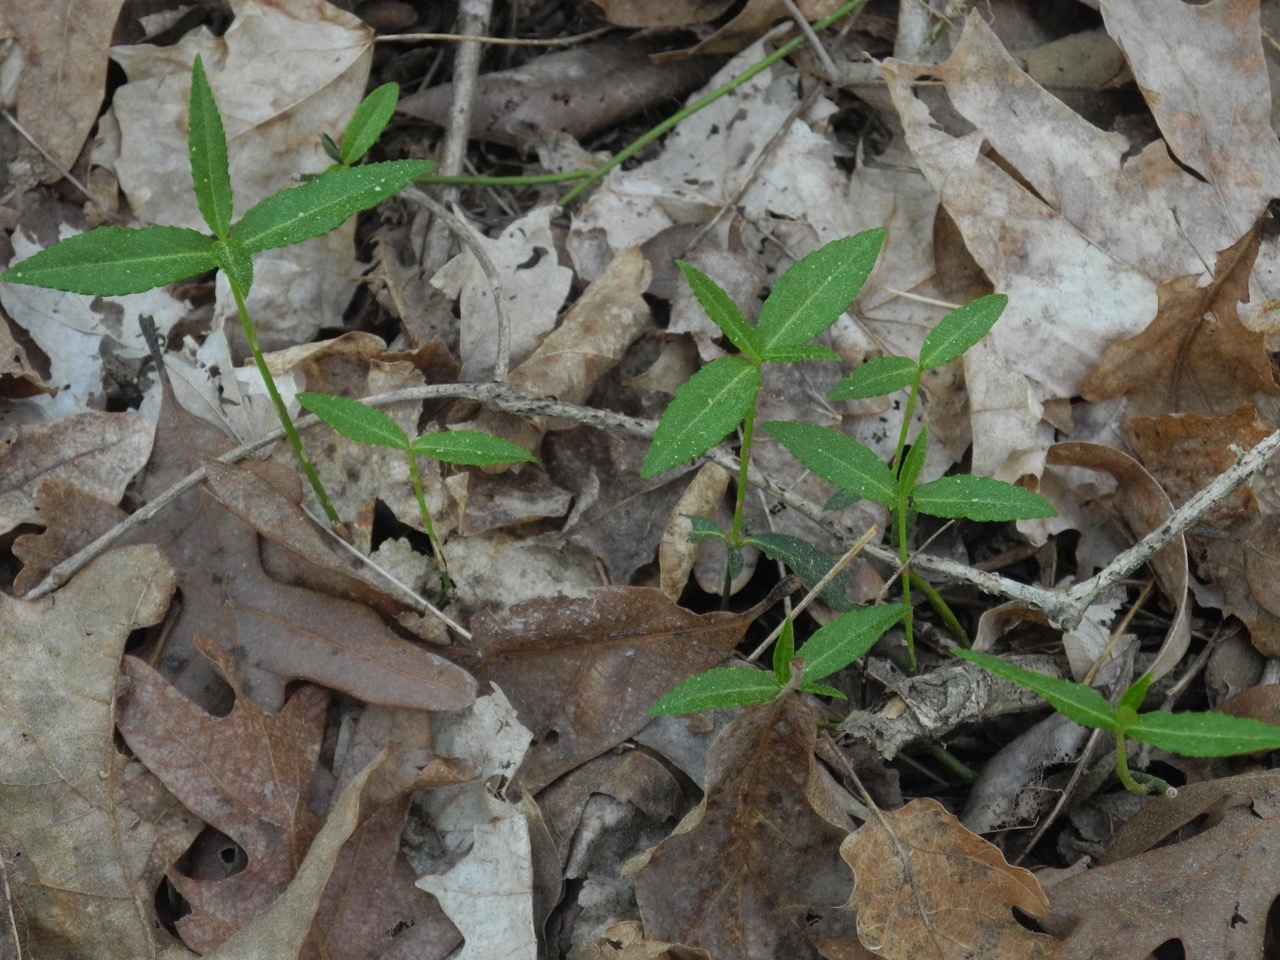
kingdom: Plantae
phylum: Tracheophyta
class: Magnoliopsida
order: Celastrales
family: Celastraceae
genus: Euonymus
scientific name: Euonymus americanus
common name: Bursting-heart
